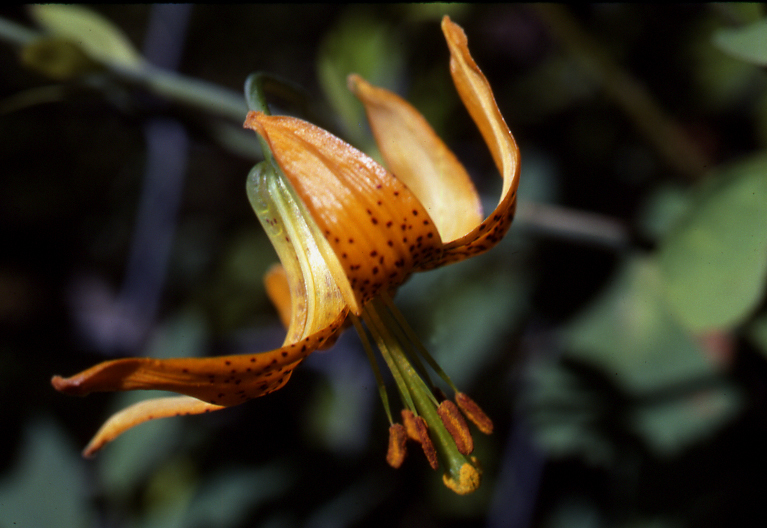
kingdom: Plantae
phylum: Tracheophyta
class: Liliopsida
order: Liliales
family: Liliaceae
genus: Lilium
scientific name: Lilium columbianum
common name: Columbia lily
